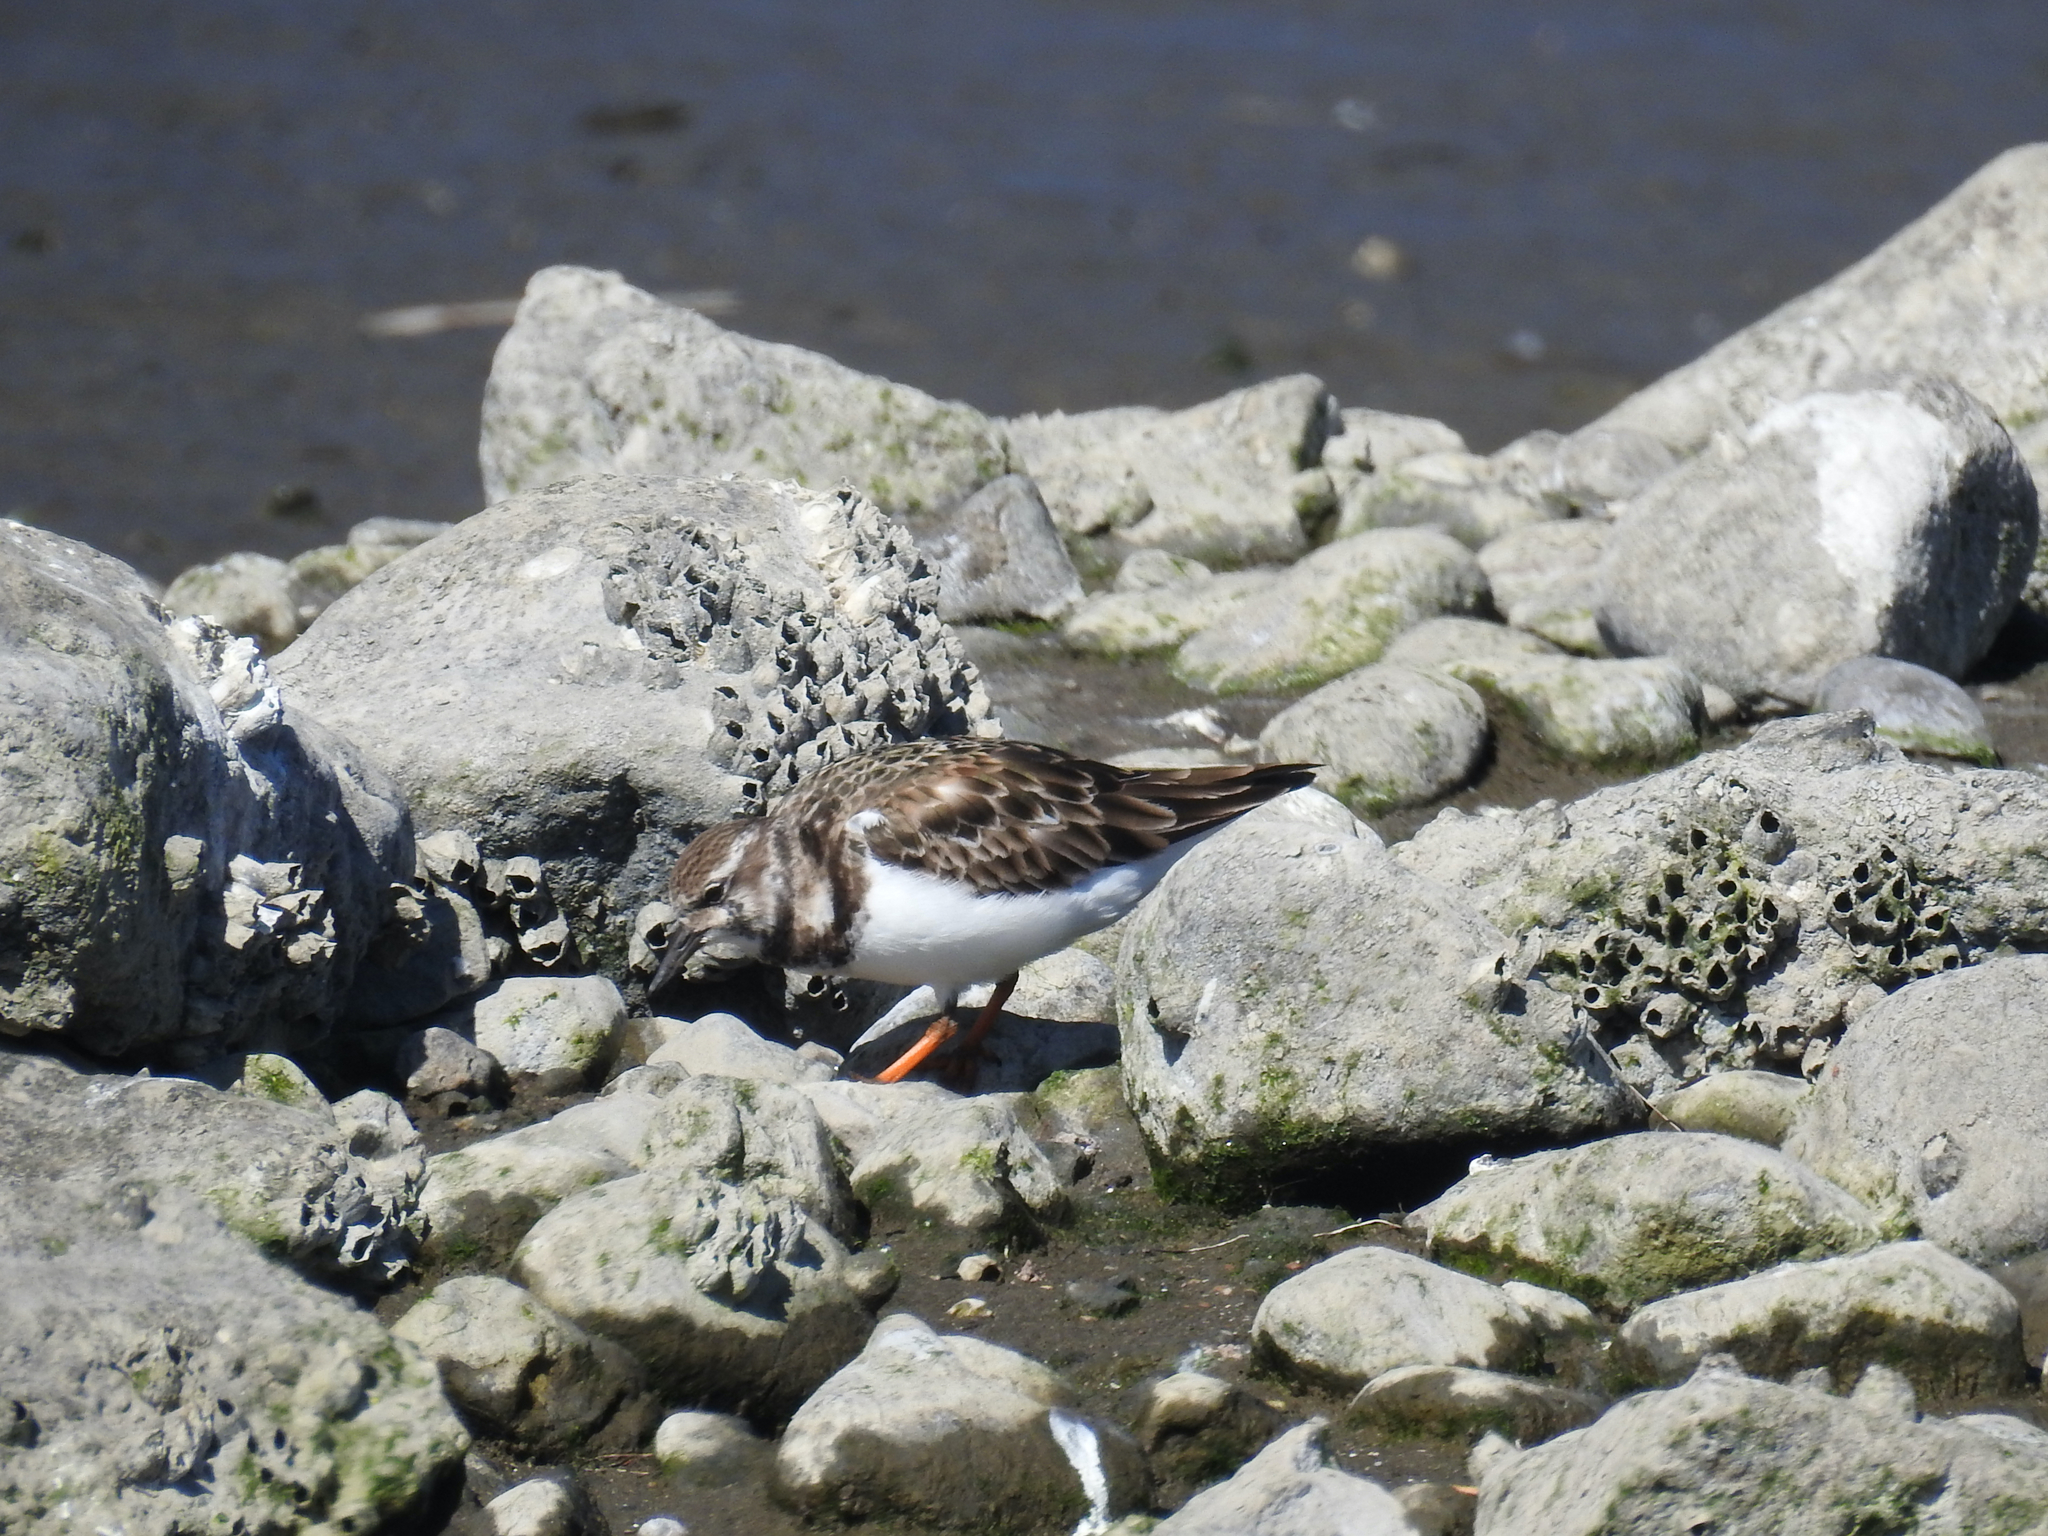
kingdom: Animalia
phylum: Chordata
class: Aves
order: Charadriiformes
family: Scolopacidae
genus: Arenaria
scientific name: Arenaria interpres
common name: Ruddy turnstone
